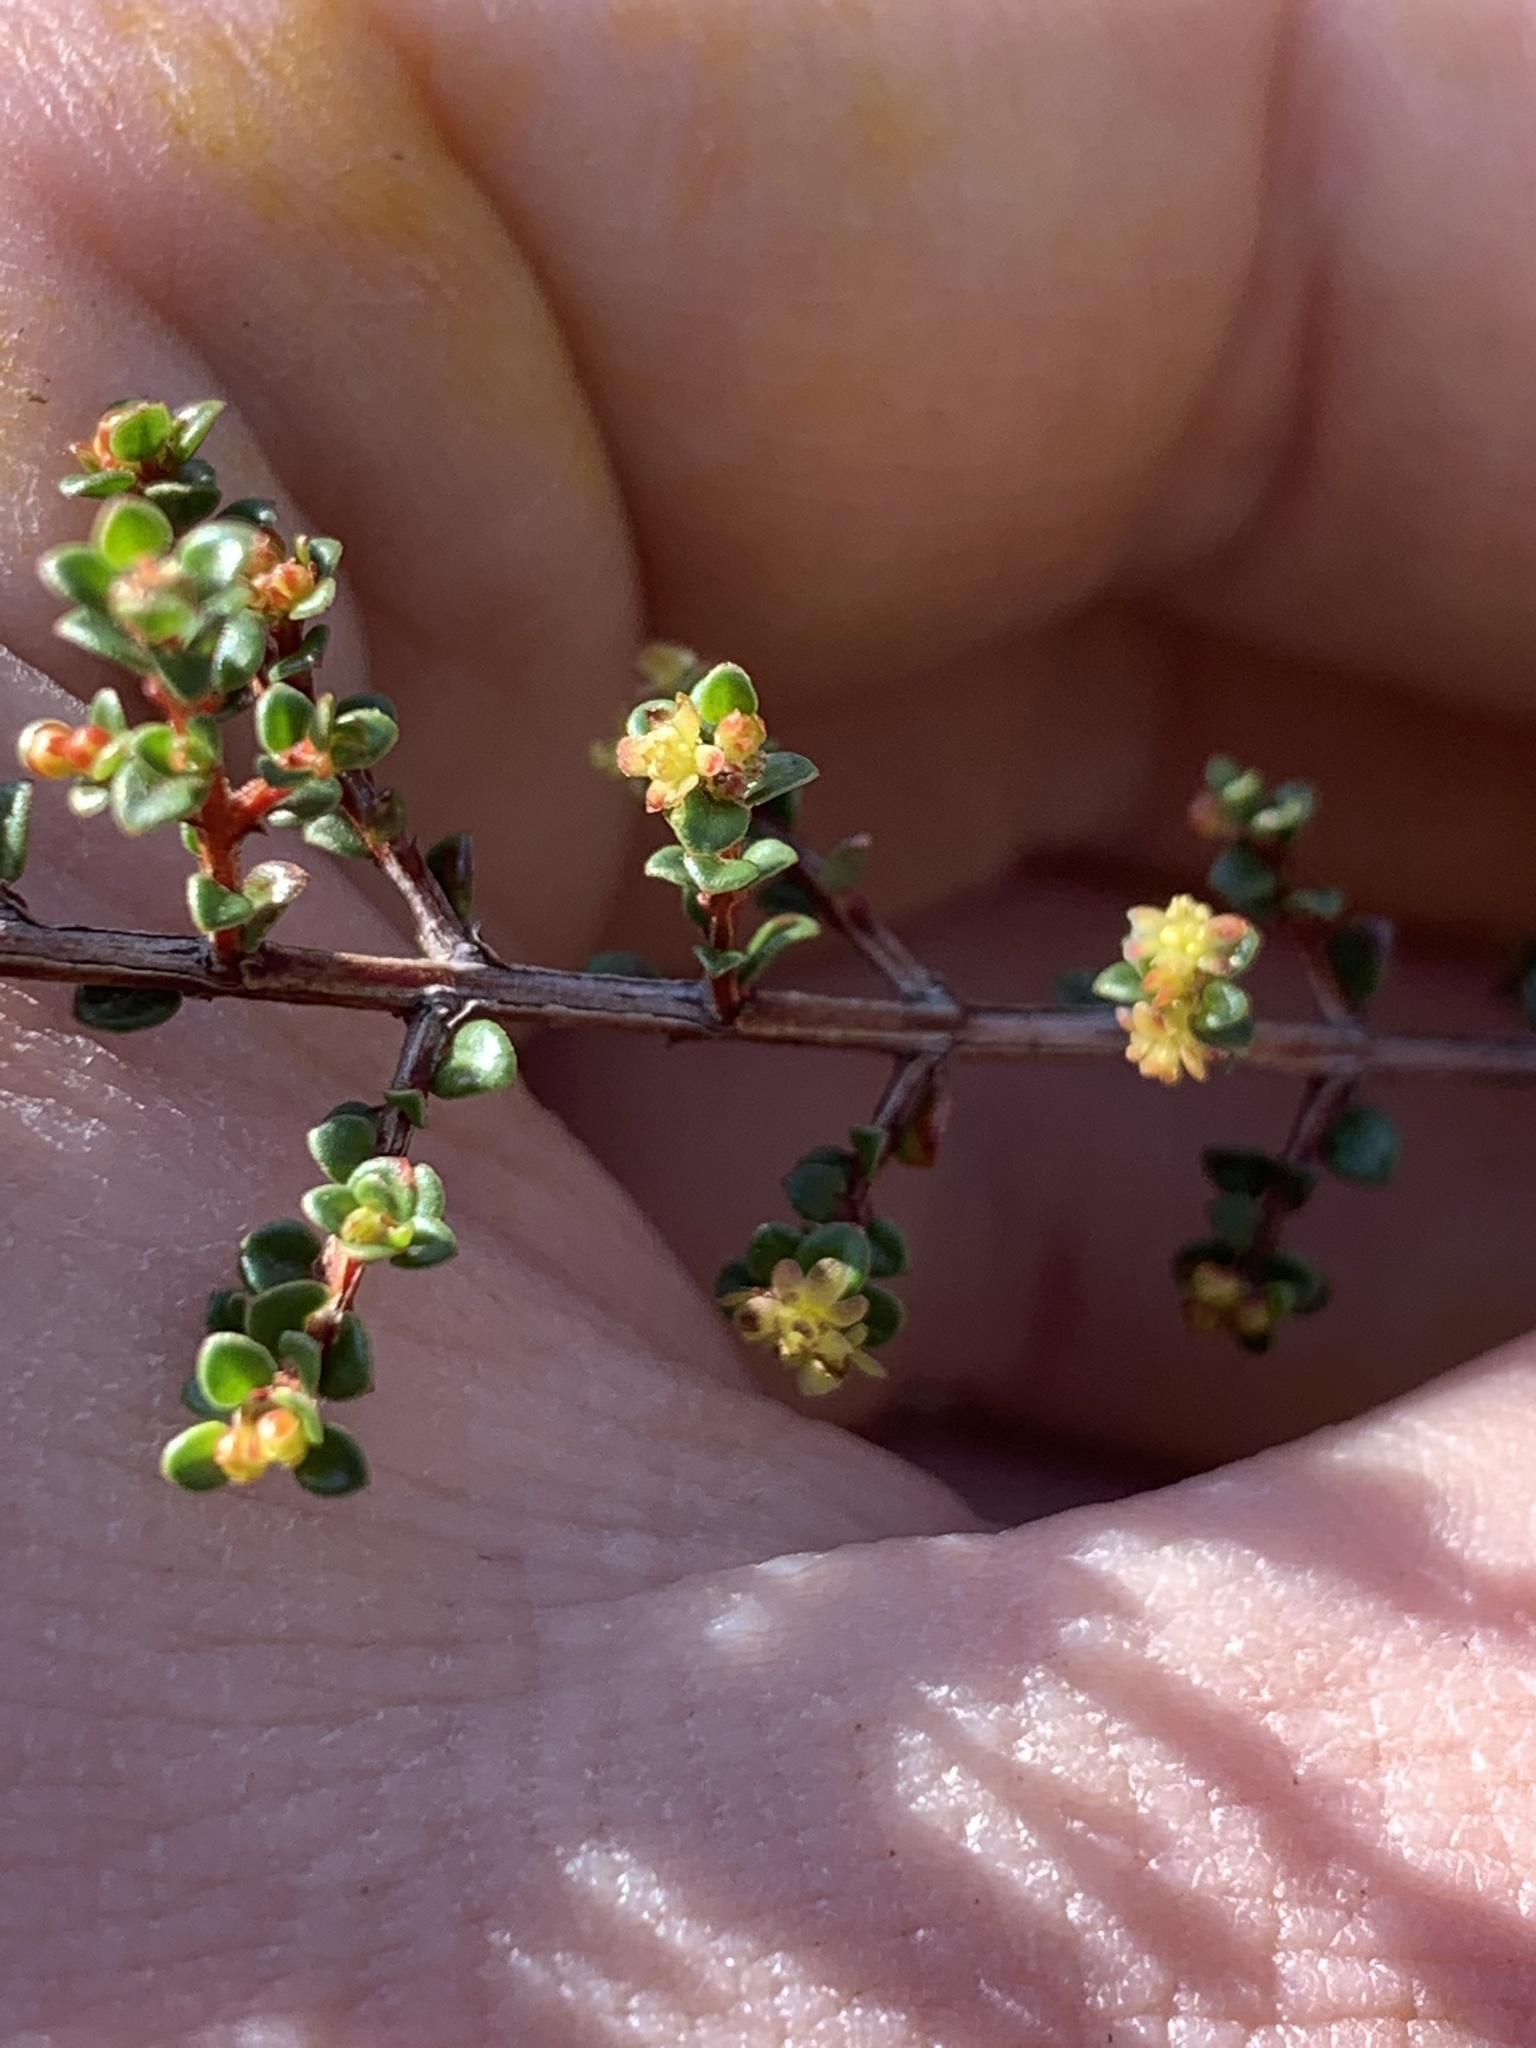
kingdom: Plantae
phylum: Tracheophyta
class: Magnoliopsida
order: Malpighiales
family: Picrodendraceae
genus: Pseudanthus
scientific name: Pseudanthus orbicularis
